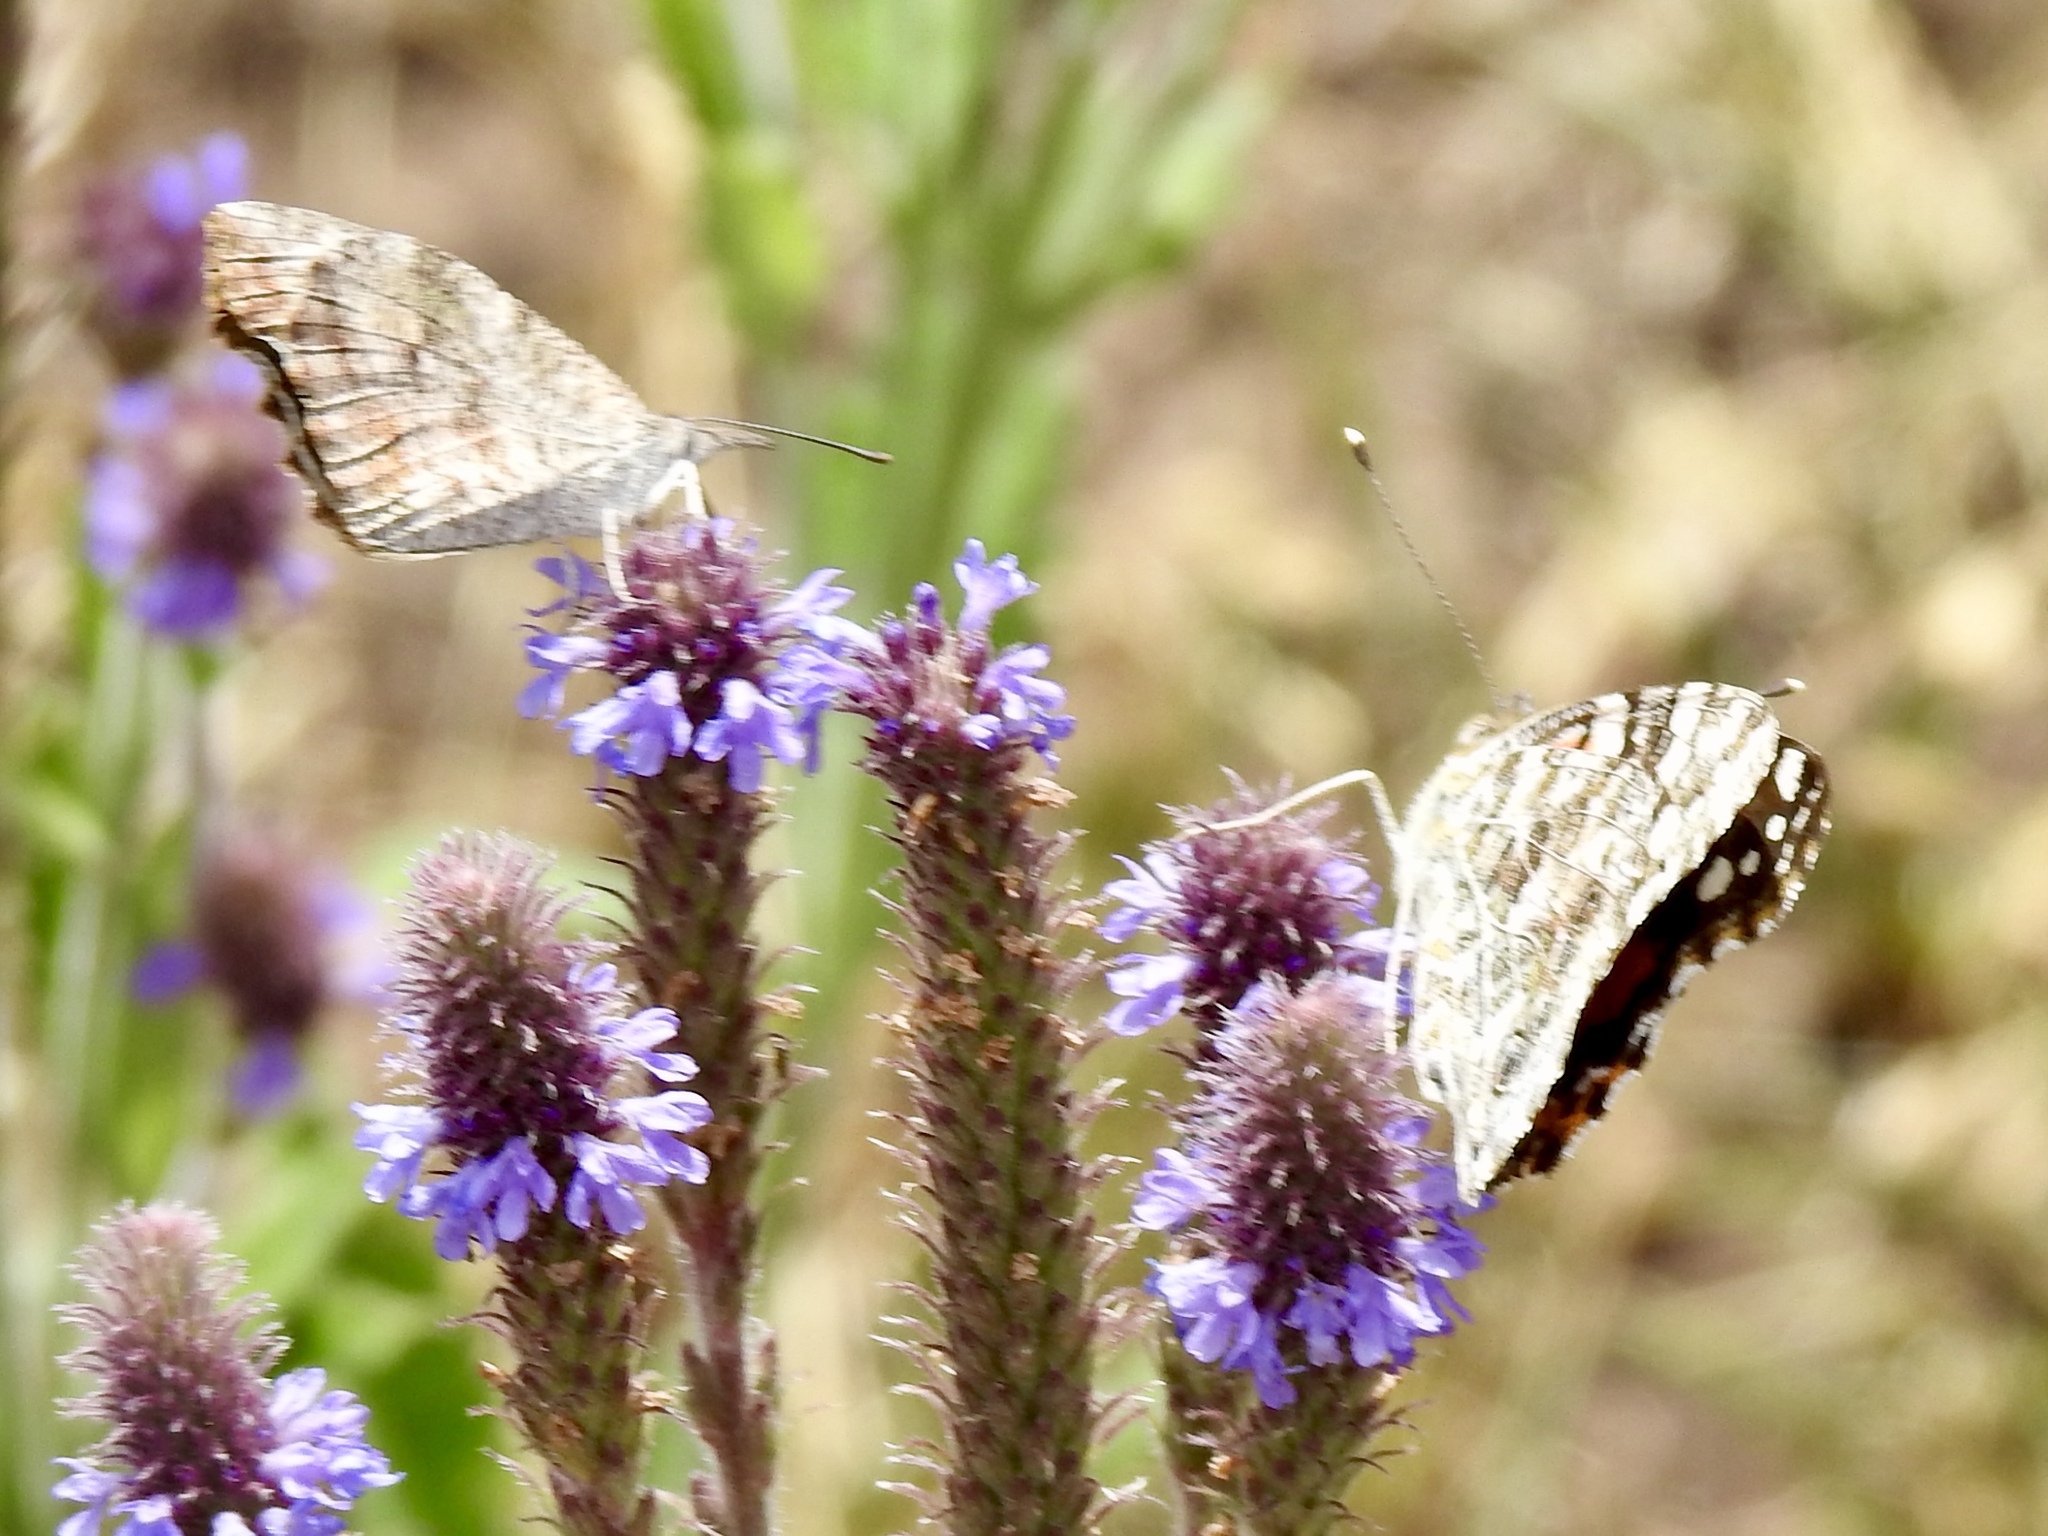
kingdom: Animalia
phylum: Arthropoda
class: Insecta
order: Lepidoptera
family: Nymphalidae
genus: Vanessa
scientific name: Vanessa cardui
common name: Painted lady
